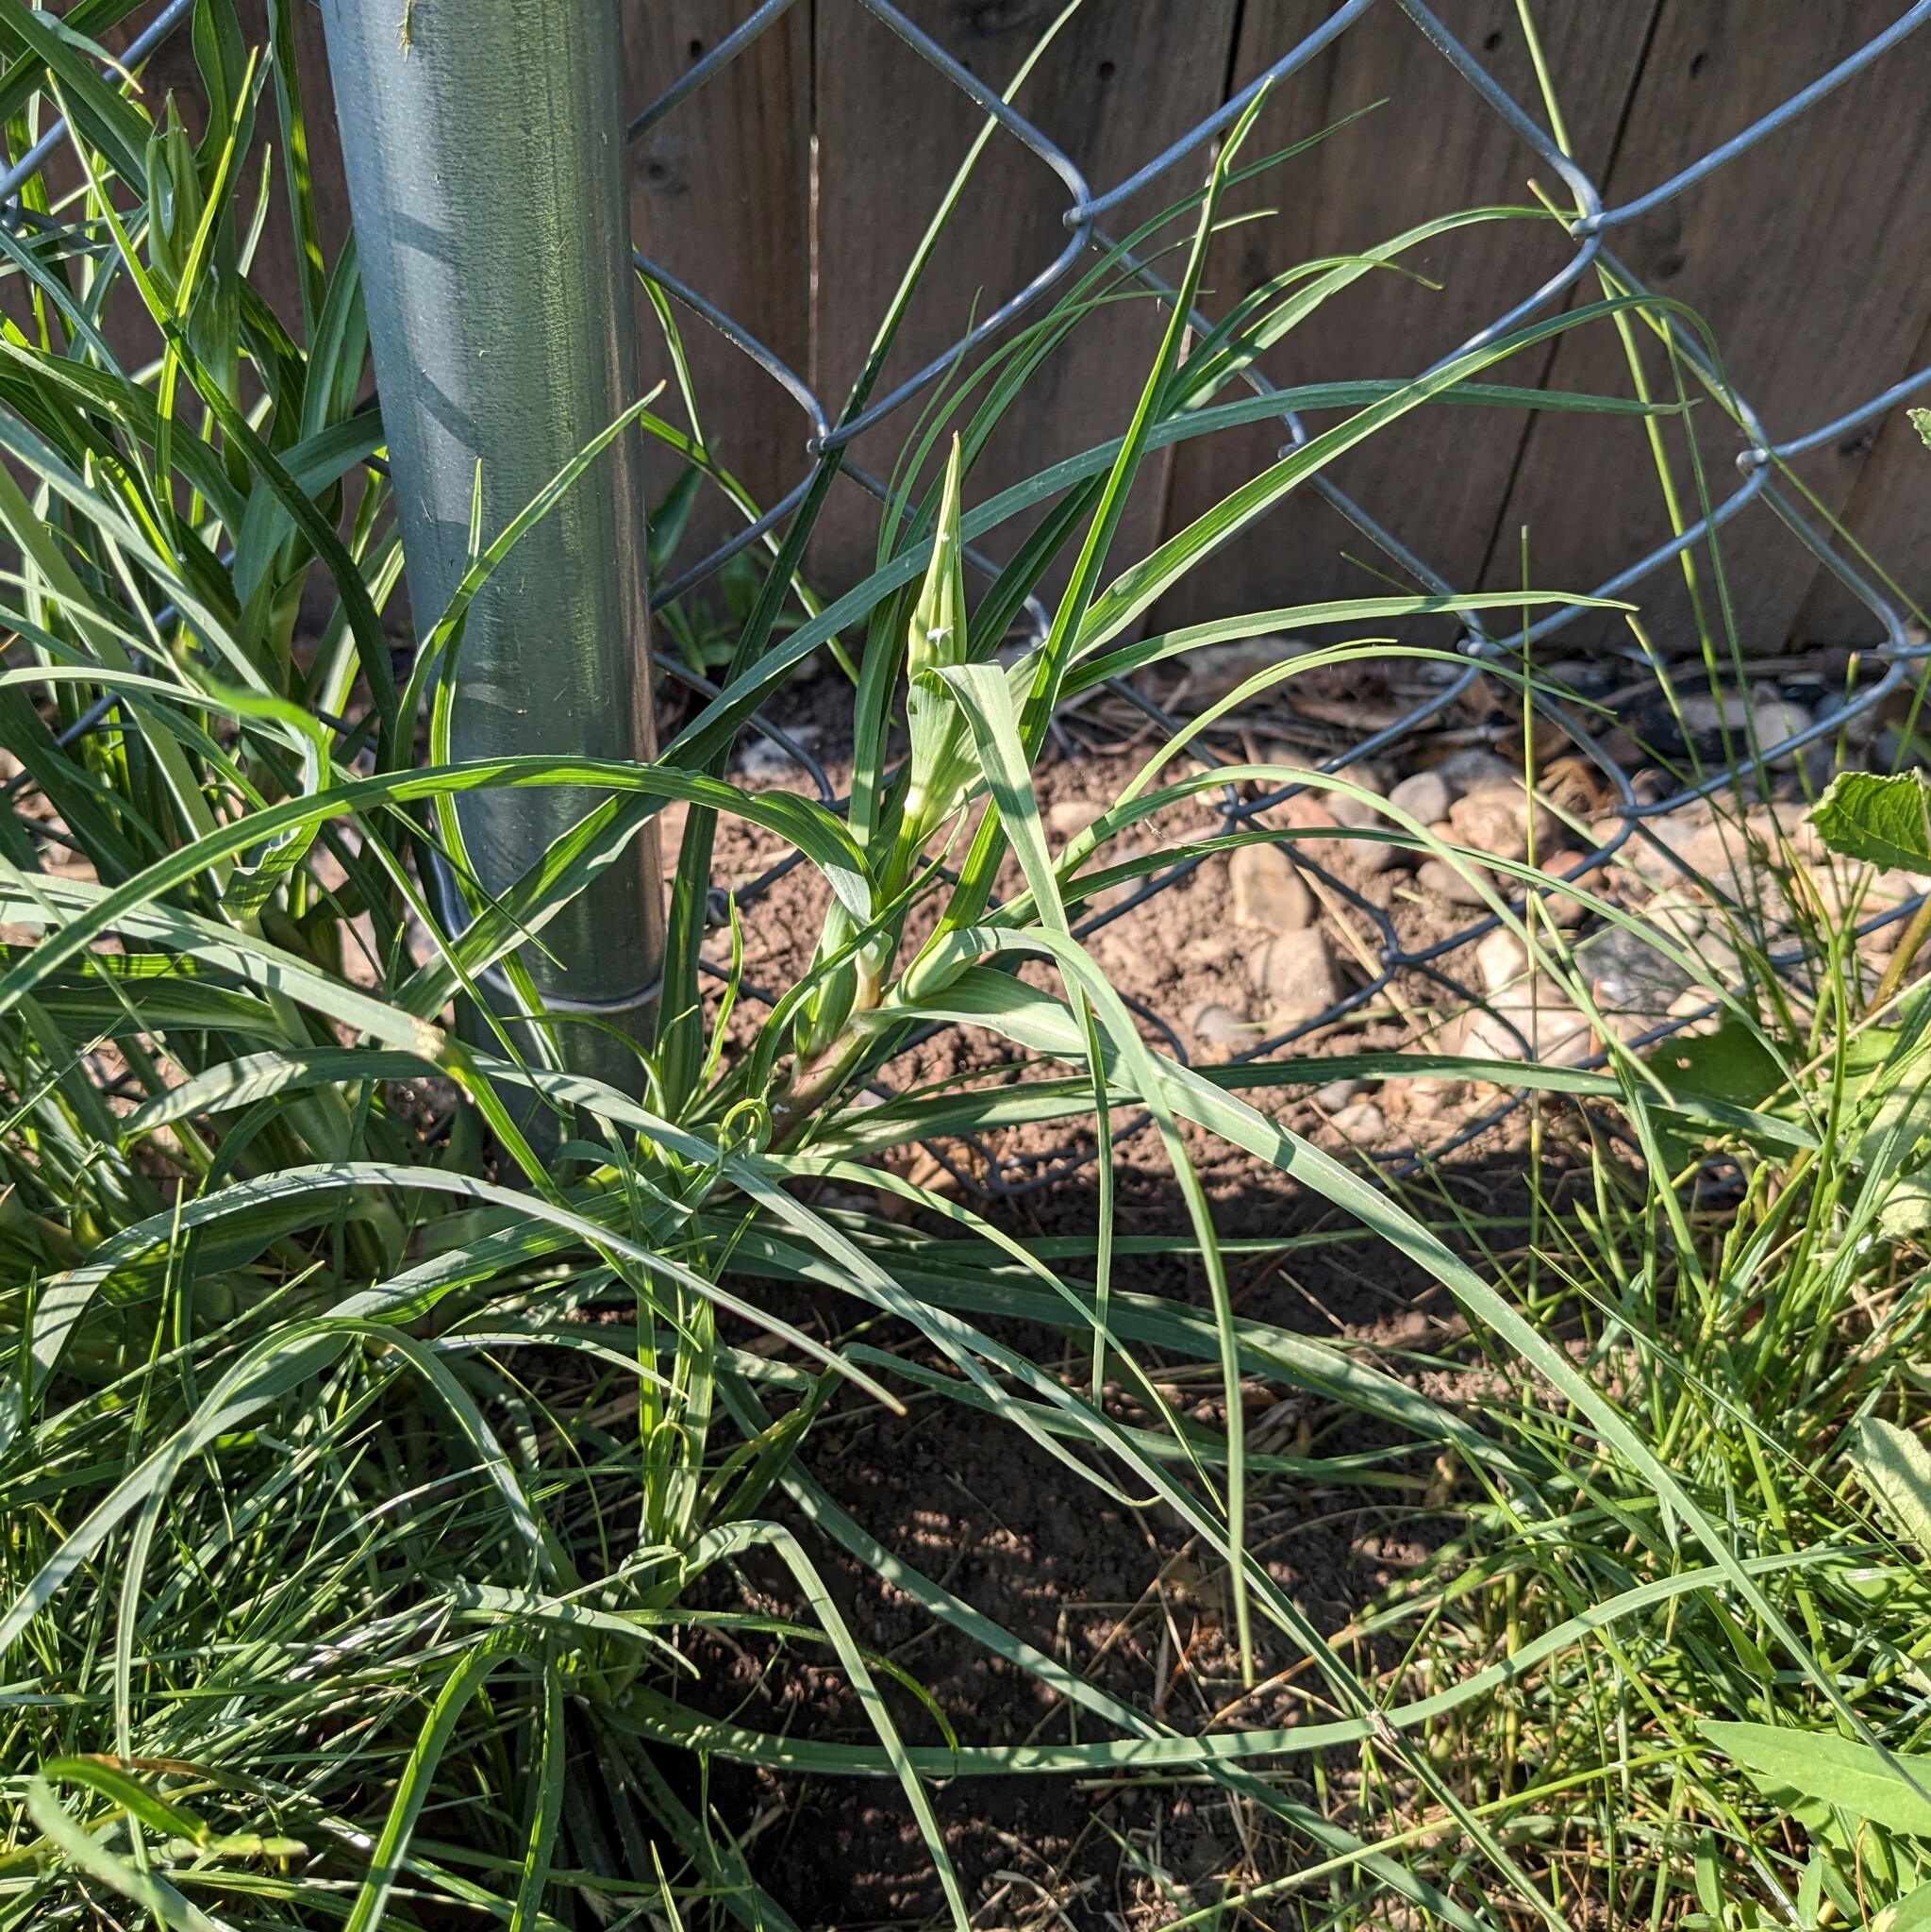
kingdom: Plantae
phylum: Tracheophyta
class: Magnoliopsida
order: Asterales
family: Asteraceae
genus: Tragopogon
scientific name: Tragopogon dubius
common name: Yellow salsify
